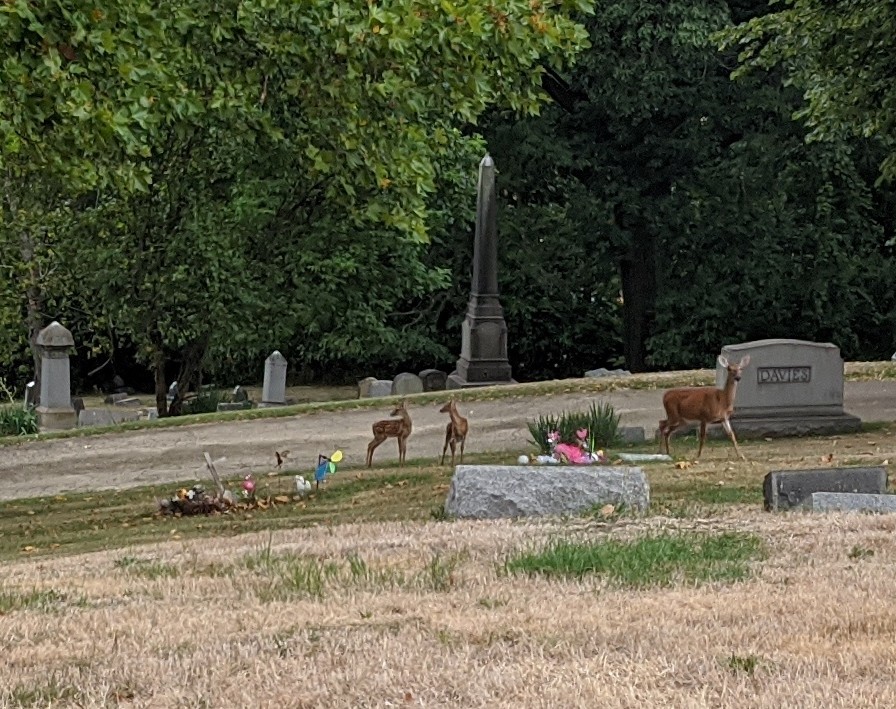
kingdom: Animalia
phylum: Chordata
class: Mammalia
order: Artiodactyla
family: Cervidae
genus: Odocoileus
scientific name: Odocoileus virginianus
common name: White-tailed deer
